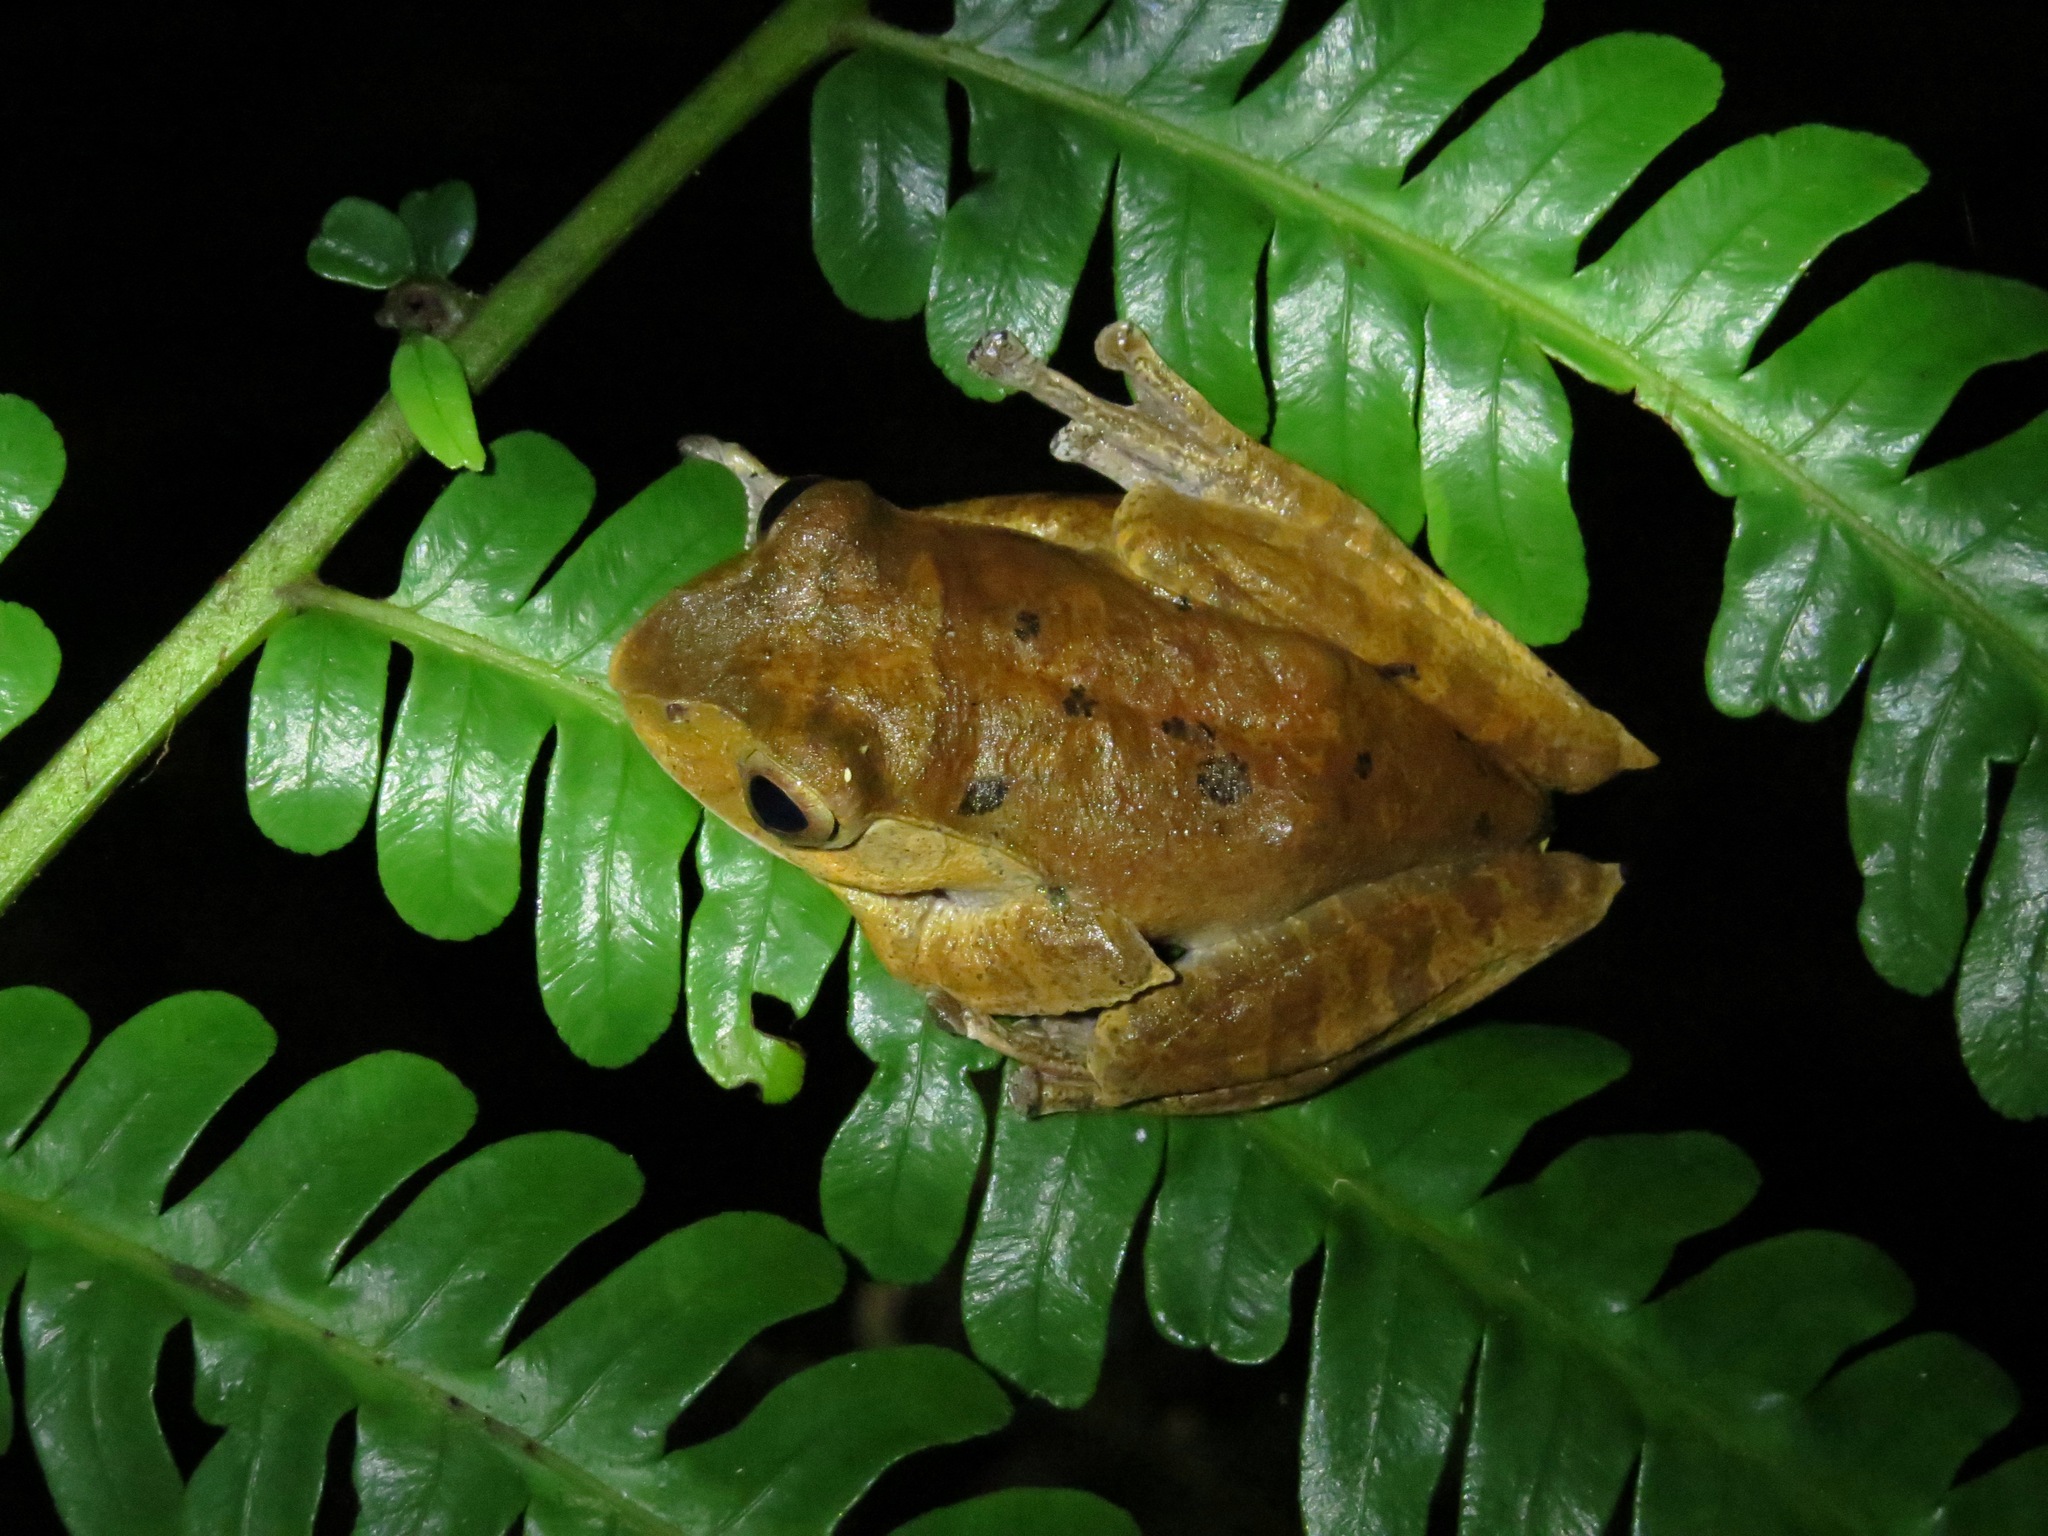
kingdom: Animalia
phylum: Chordata
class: Amphibia
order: Anura
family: Mantellidae
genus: Boophis
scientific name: Boophis madagascariensis
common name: Madagascar bright-eyed frog
